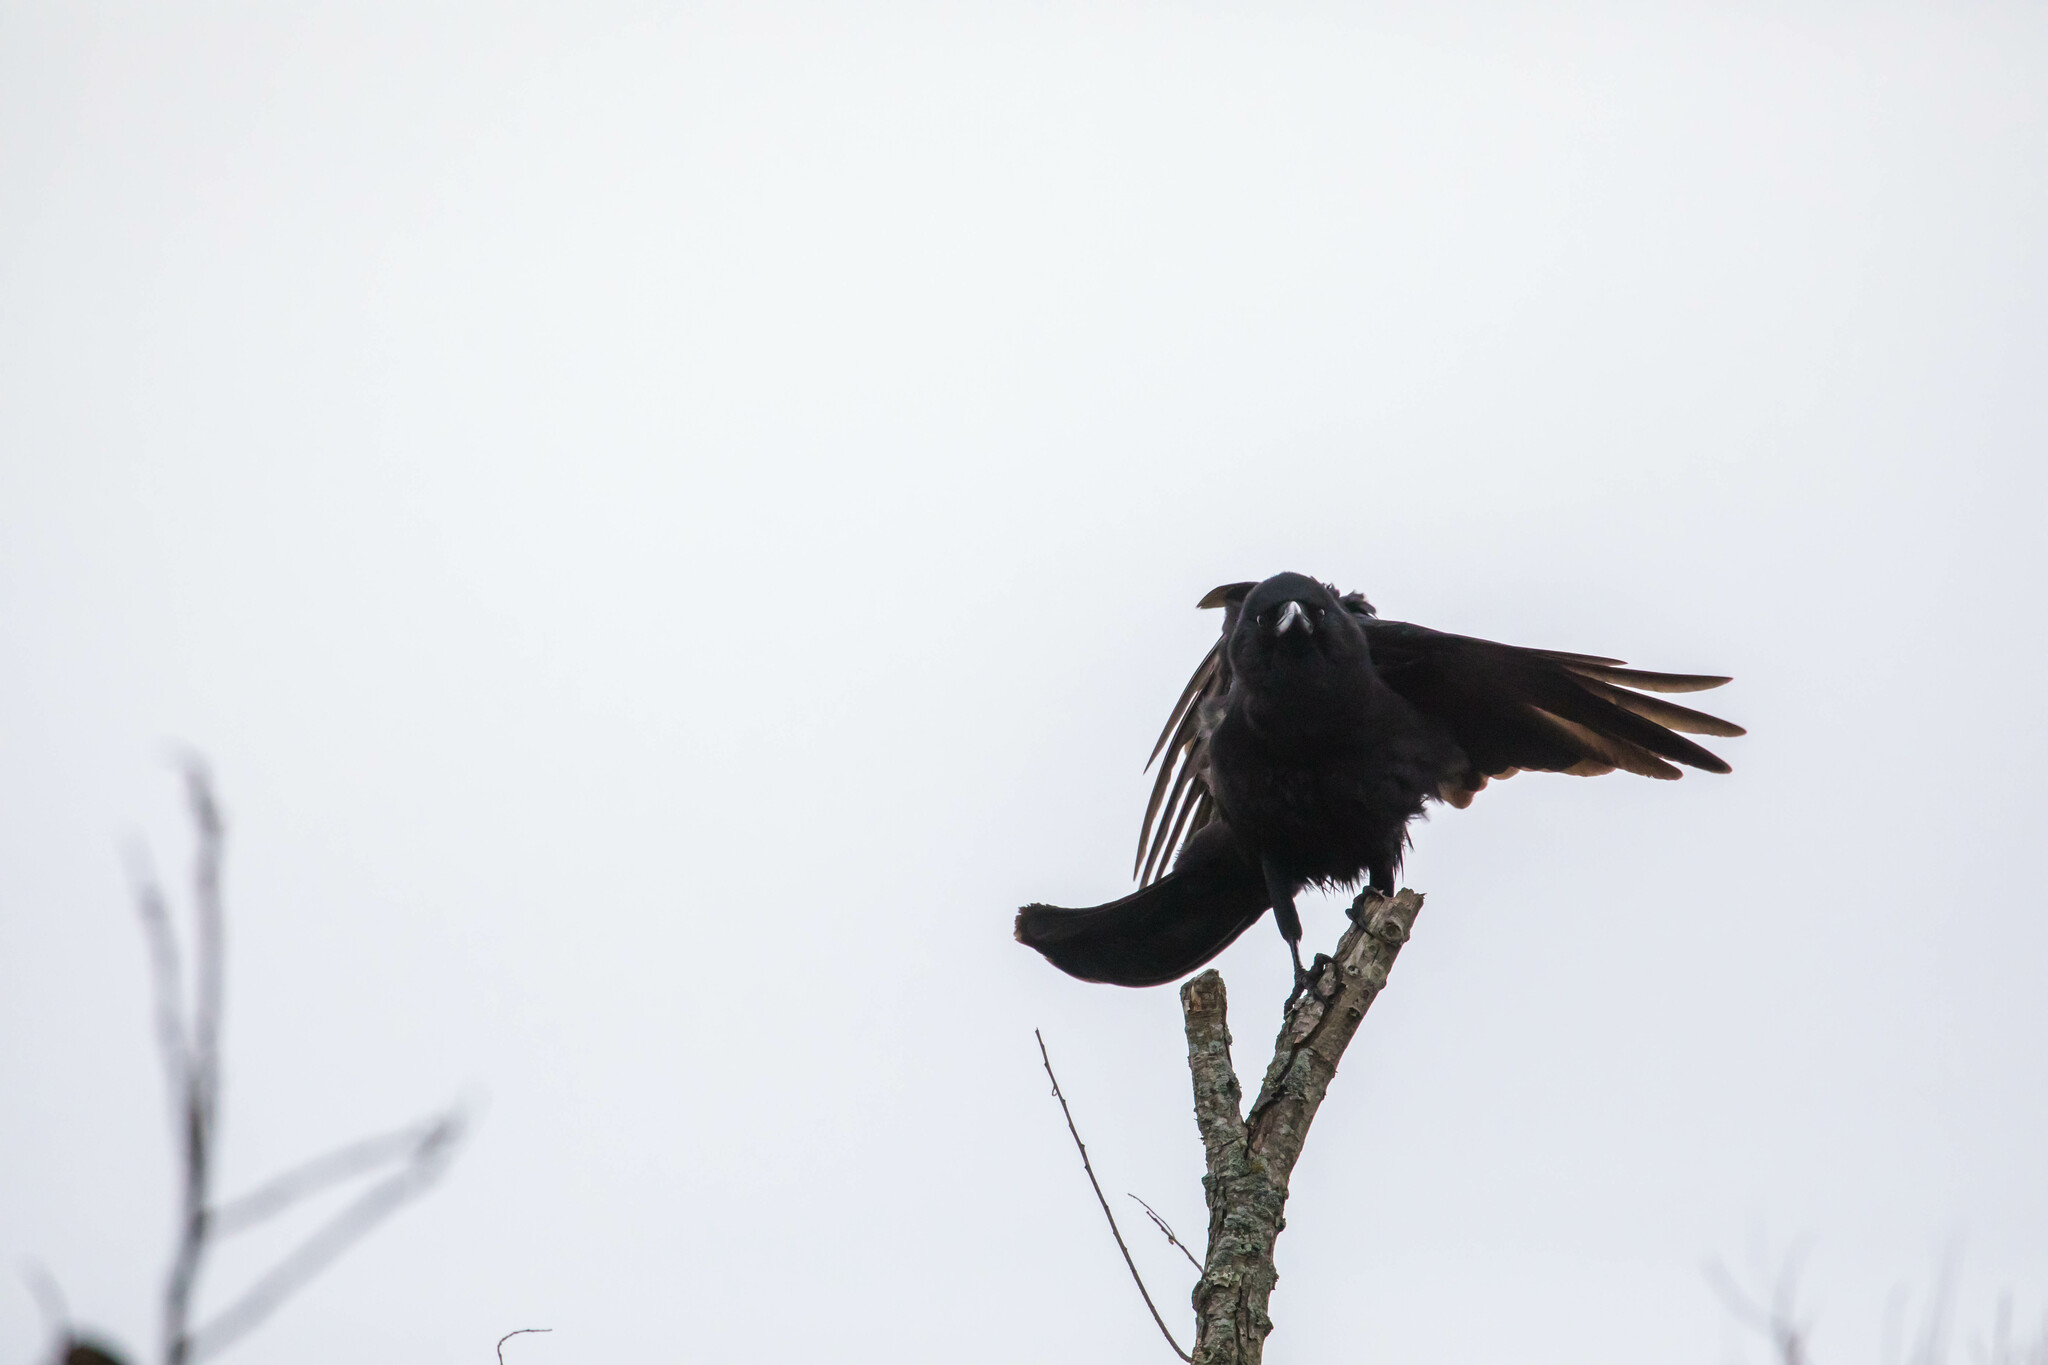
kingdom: Animalia
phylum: Chordata
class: Aves
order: Passeriformes
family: Corvidae
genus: Corvus
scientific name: Corvus brachyrhynchos
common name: American crow
